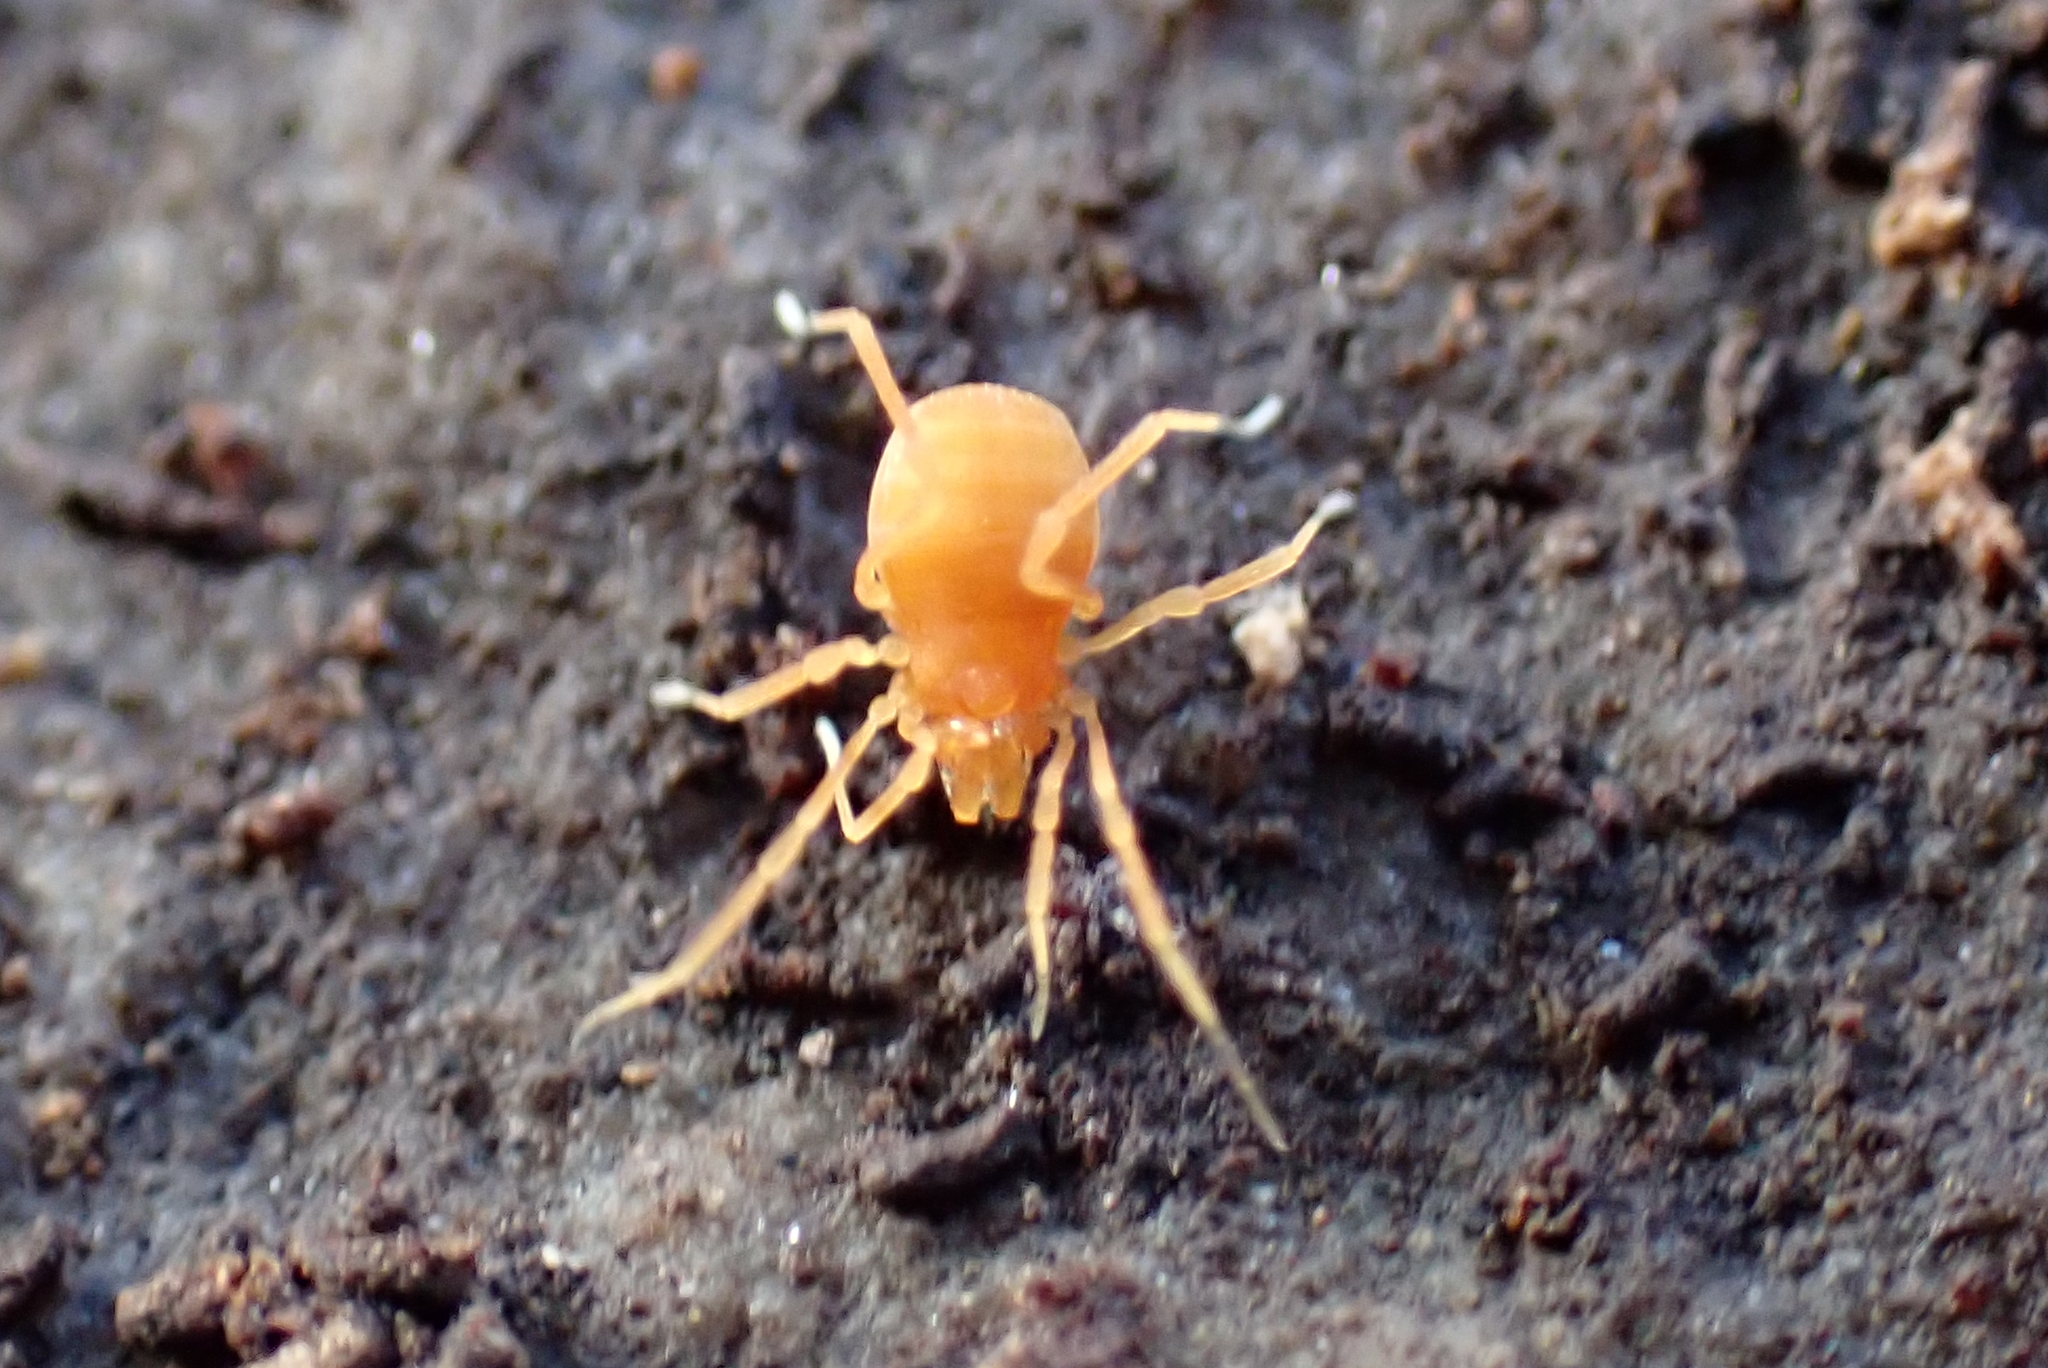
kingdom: Animalia
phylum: Arthropoda
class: Arachnida
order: Opiliones
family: Phalangodidae
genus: Scotolemon
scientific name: Scotolemon doriae
